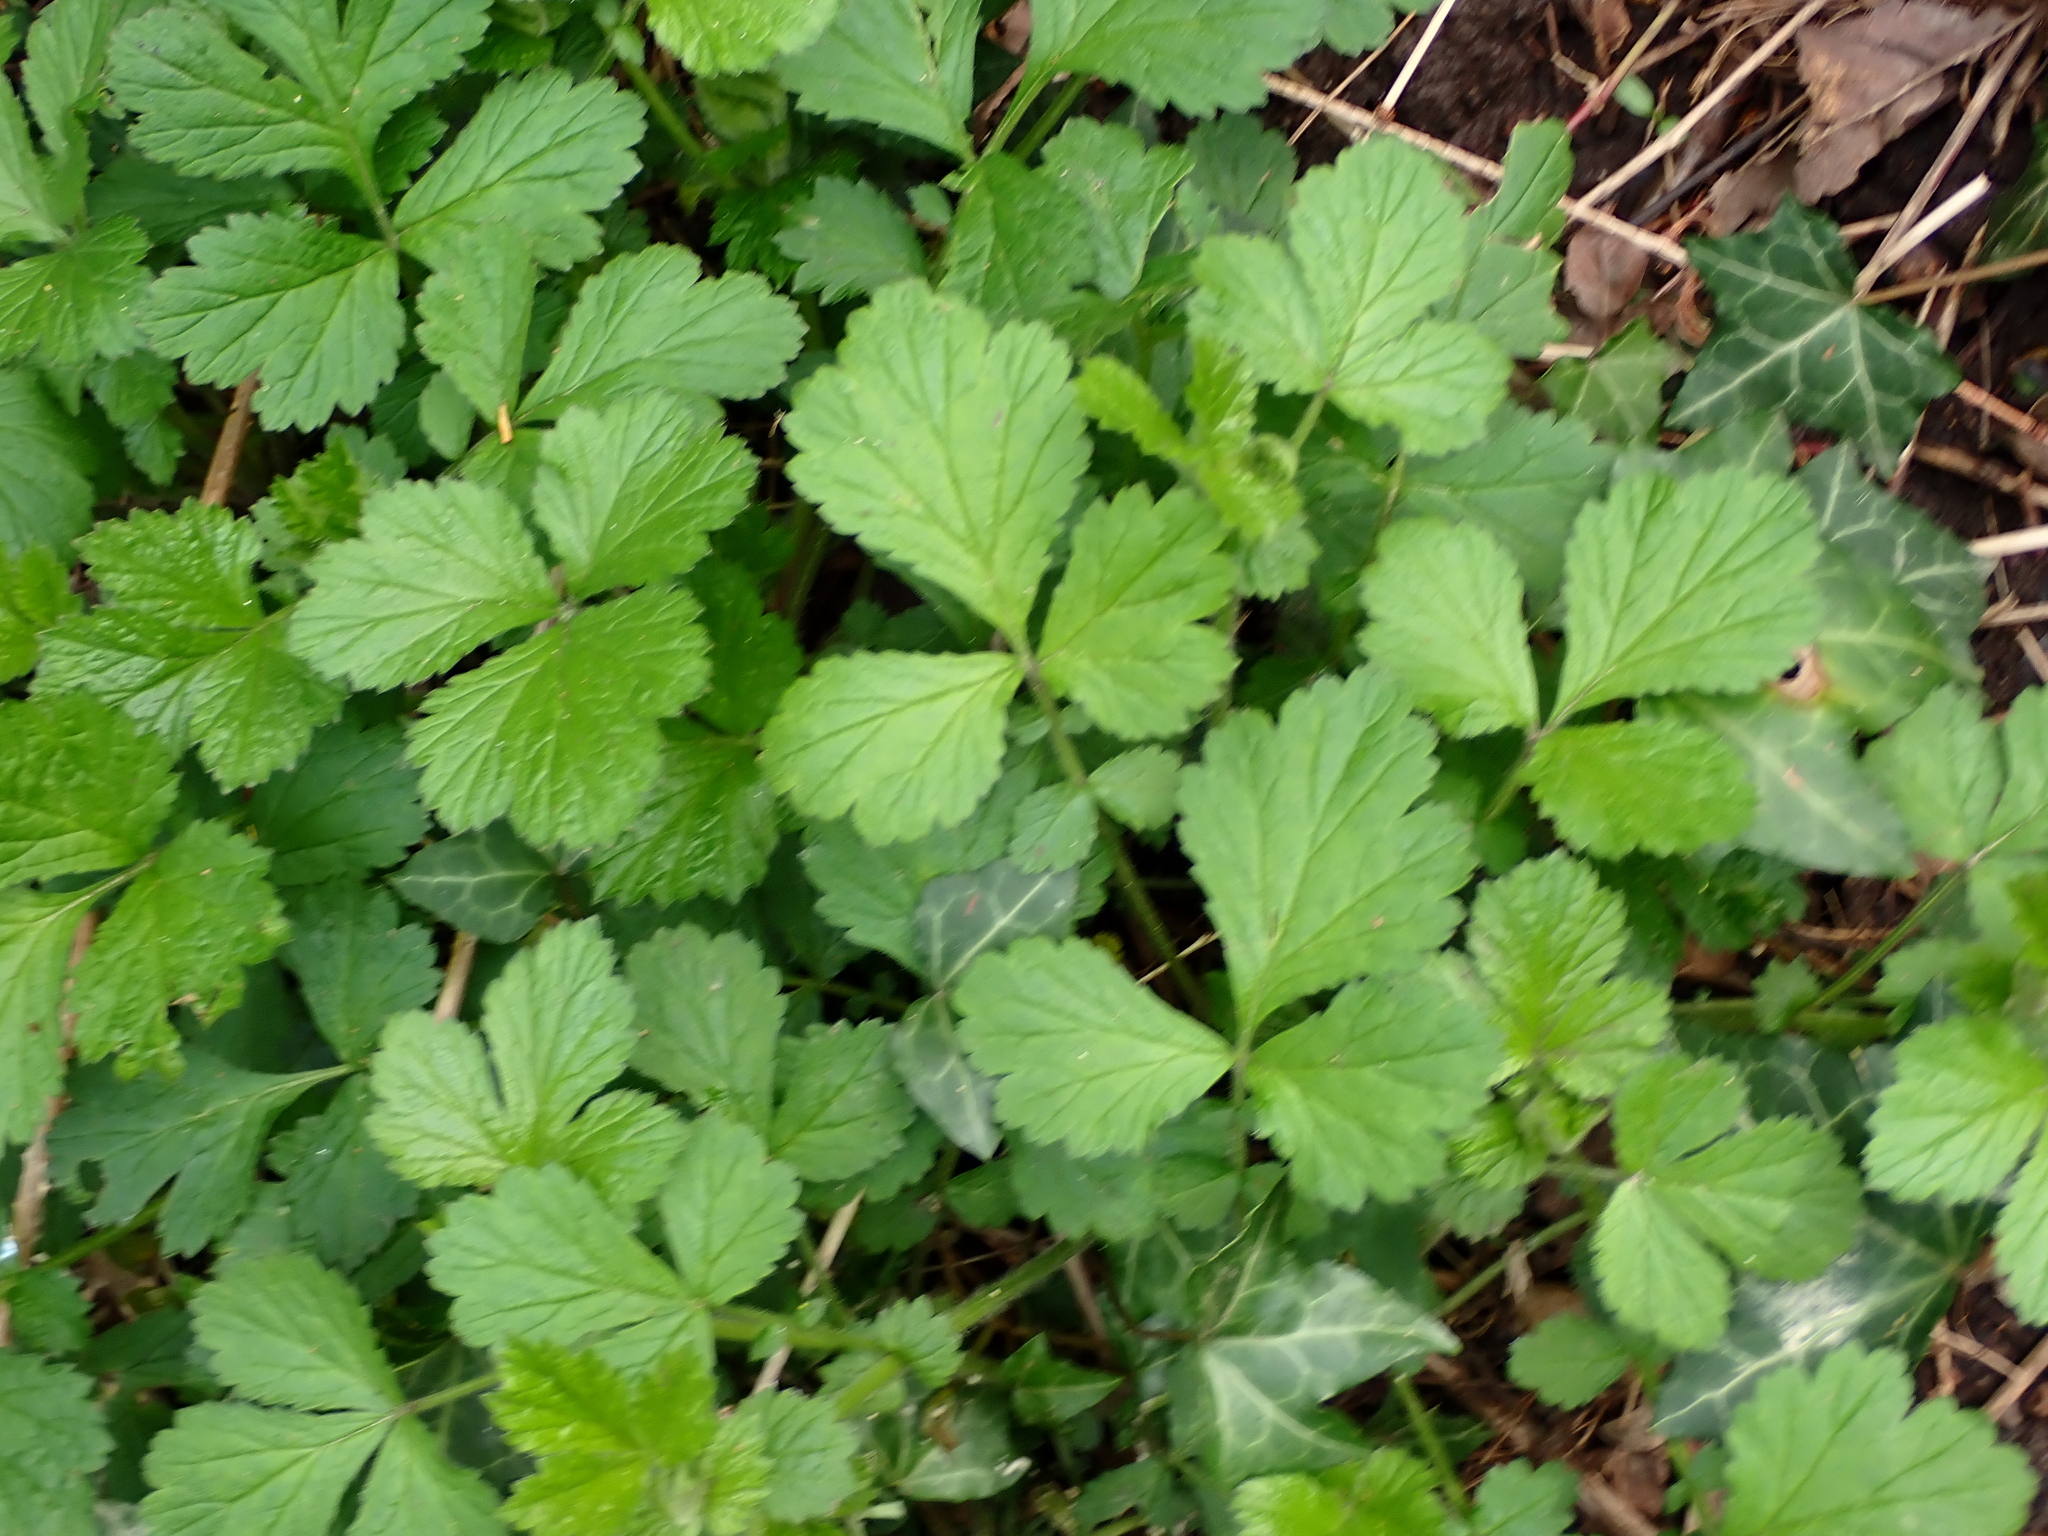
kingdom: Plantae
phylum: Tracheophyta
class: Magnoliopsida
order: Rosales
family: Rosaceae
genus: Geum
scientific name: Geum urbanum
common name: Wood avens
